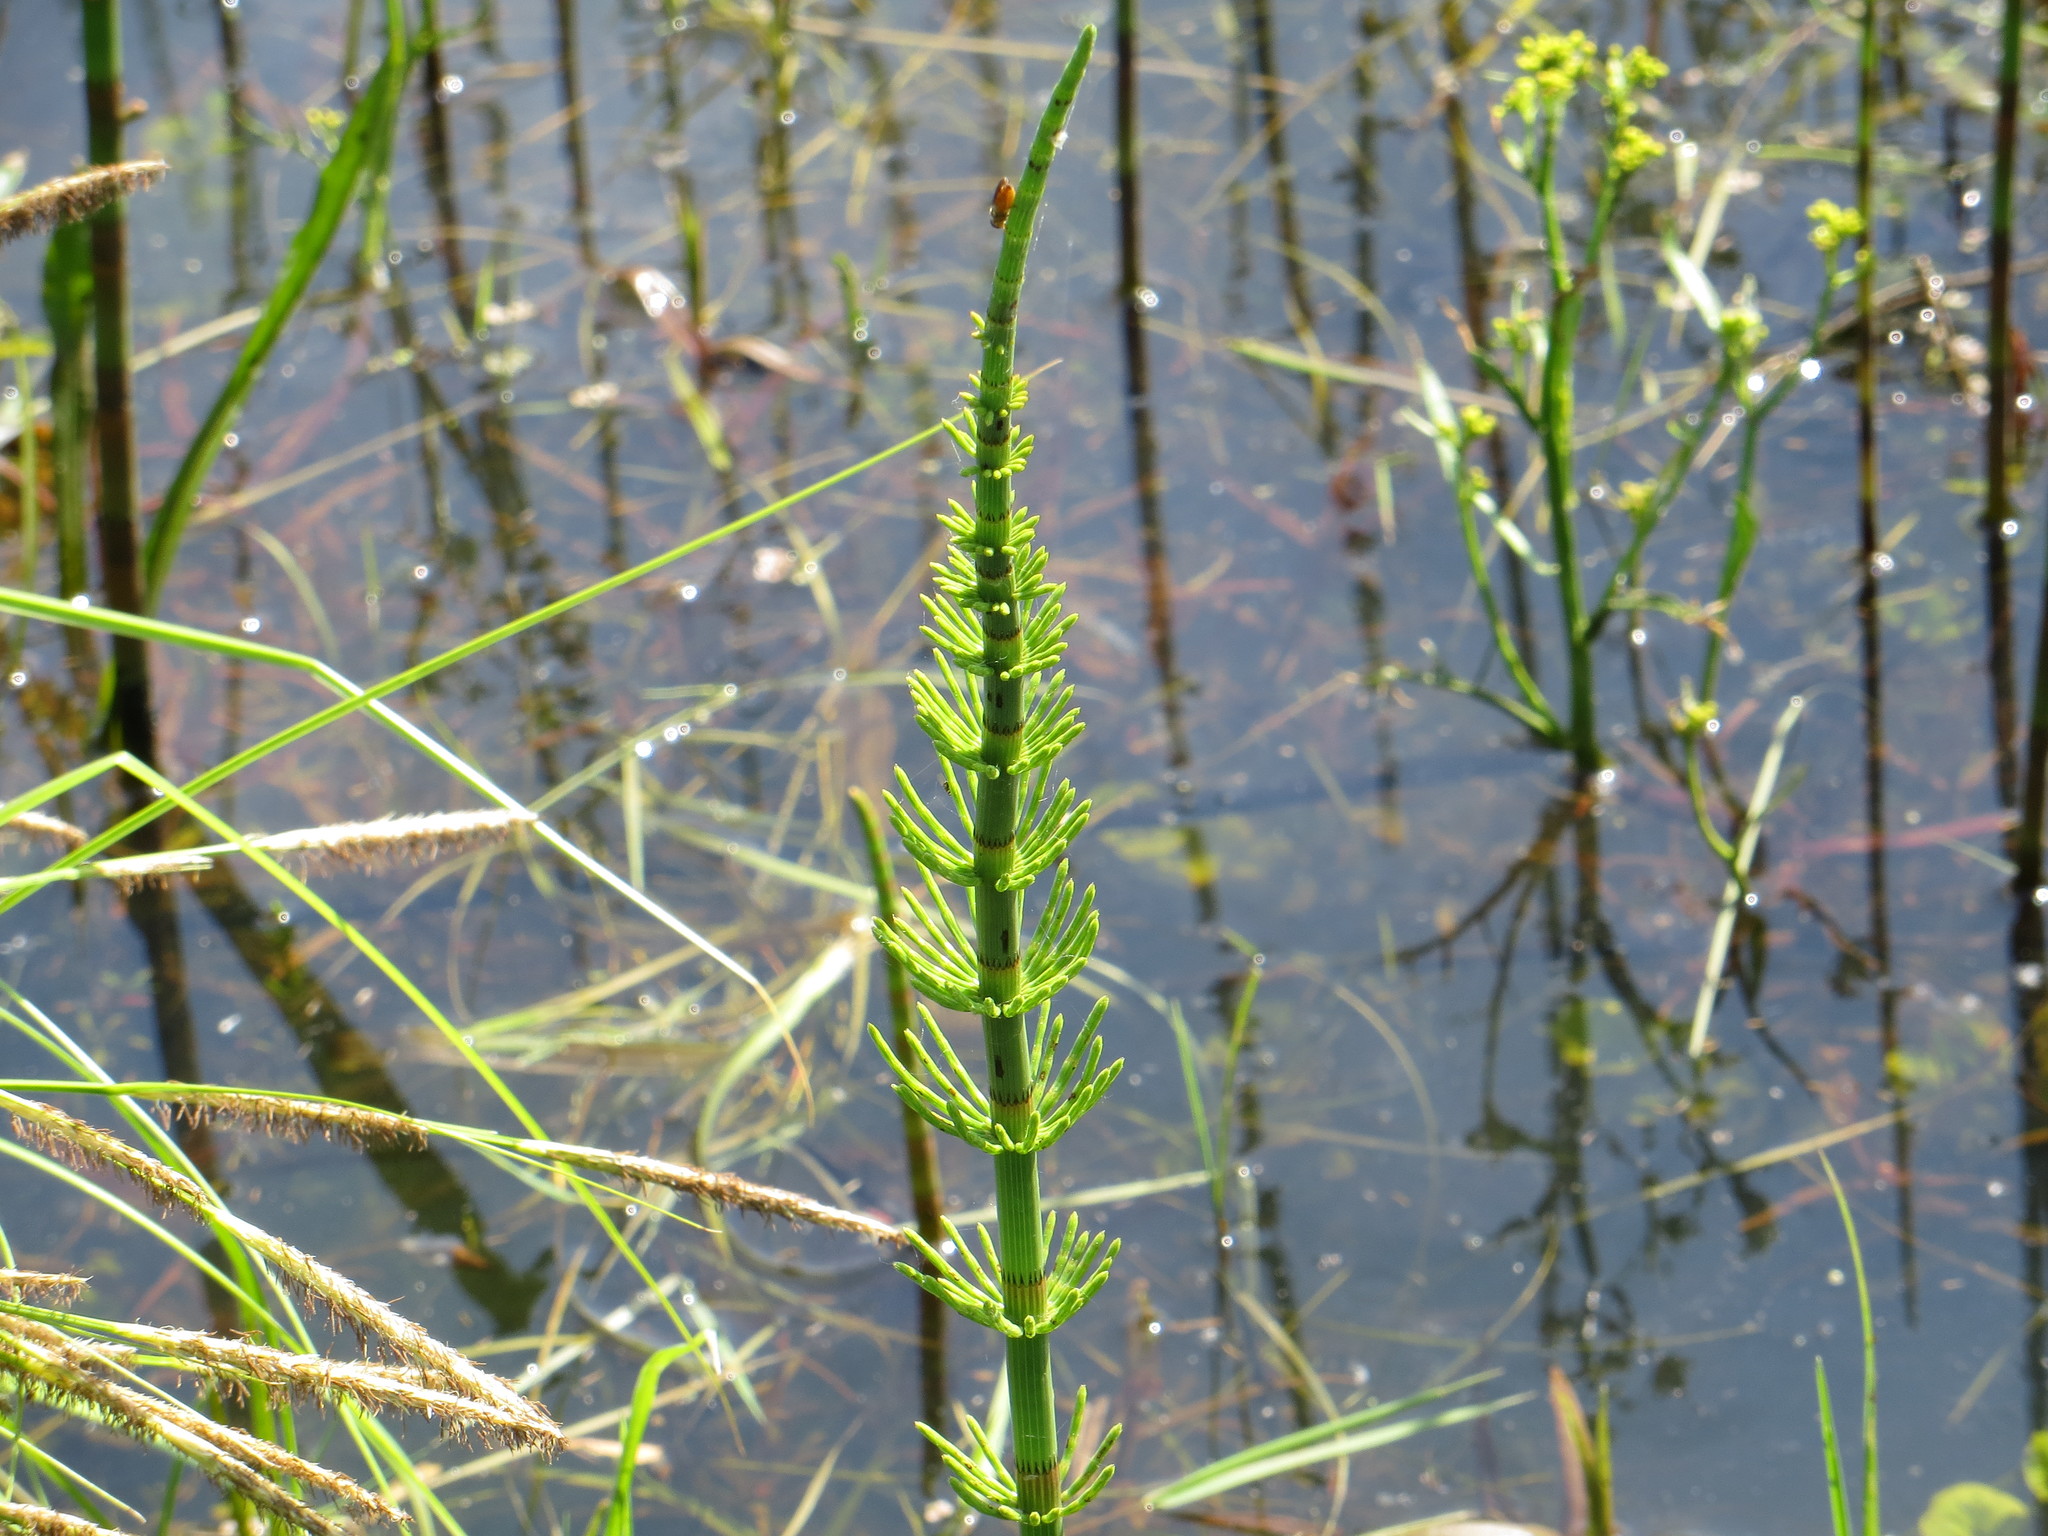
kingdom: Plantae
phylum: Tracheophyta
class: Polypodiopsida
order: Equisetales
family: Equisetaceae
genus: Equisetum
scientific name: Equisetum fluviatile
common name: Water horsetail
